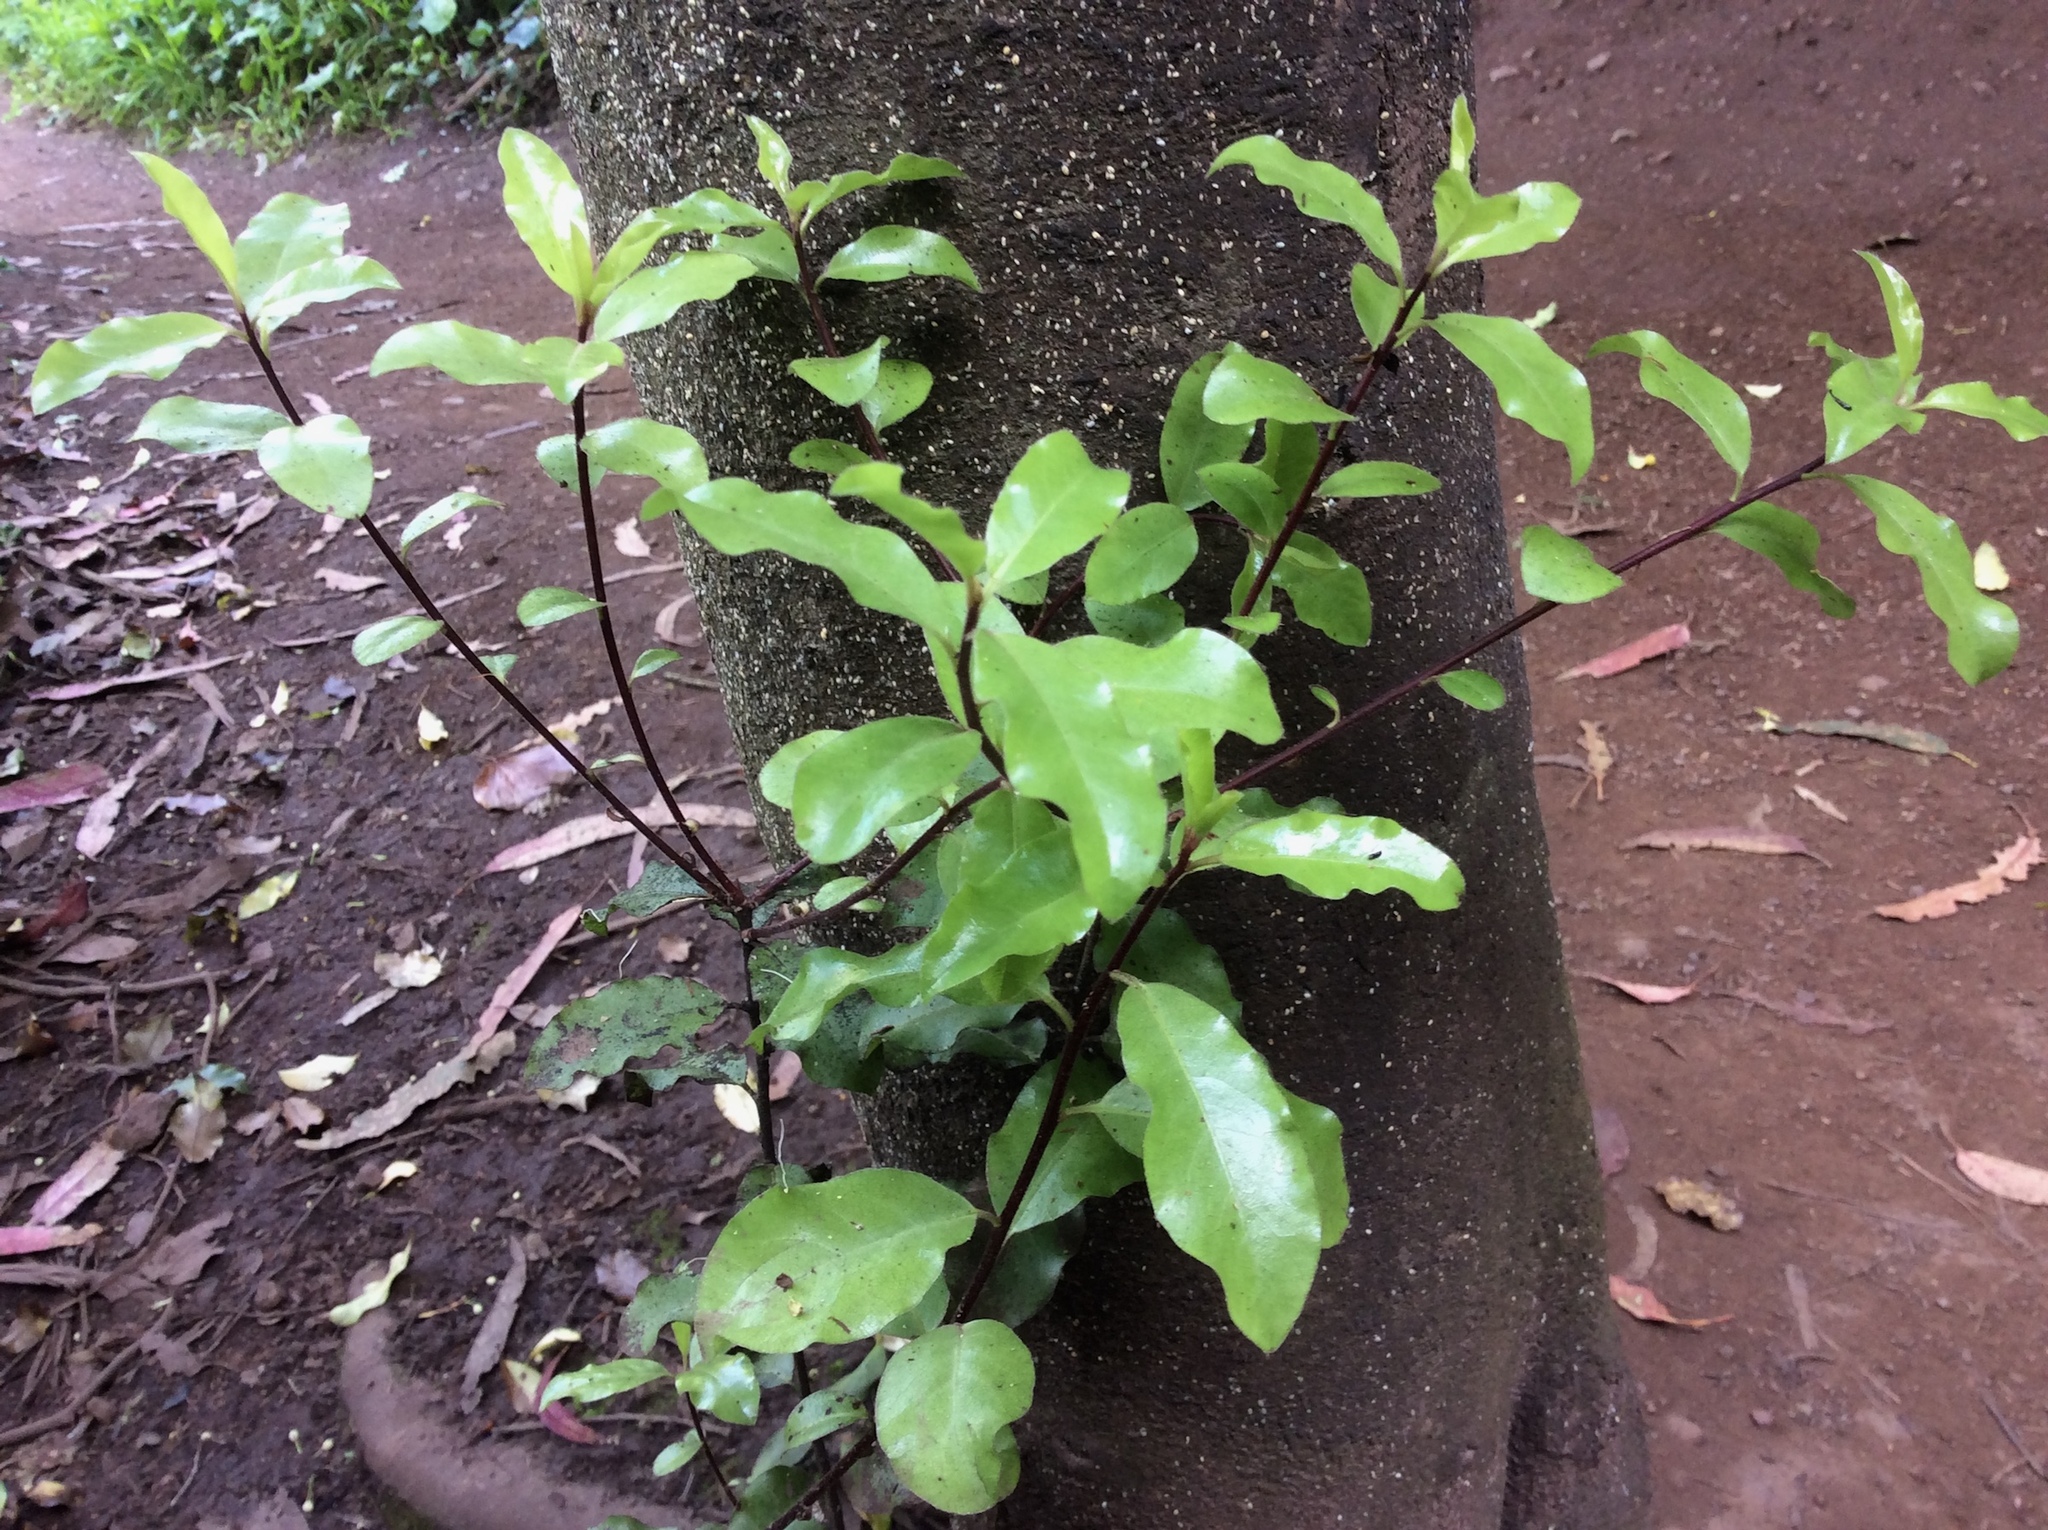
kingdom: Plantae
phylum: Tracheophyta
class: Magnoliopsida
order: Apiales
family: Pittosporaceae
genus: Pittosporum
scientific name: Pittosporum tenuifolium
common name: Kohuhu
